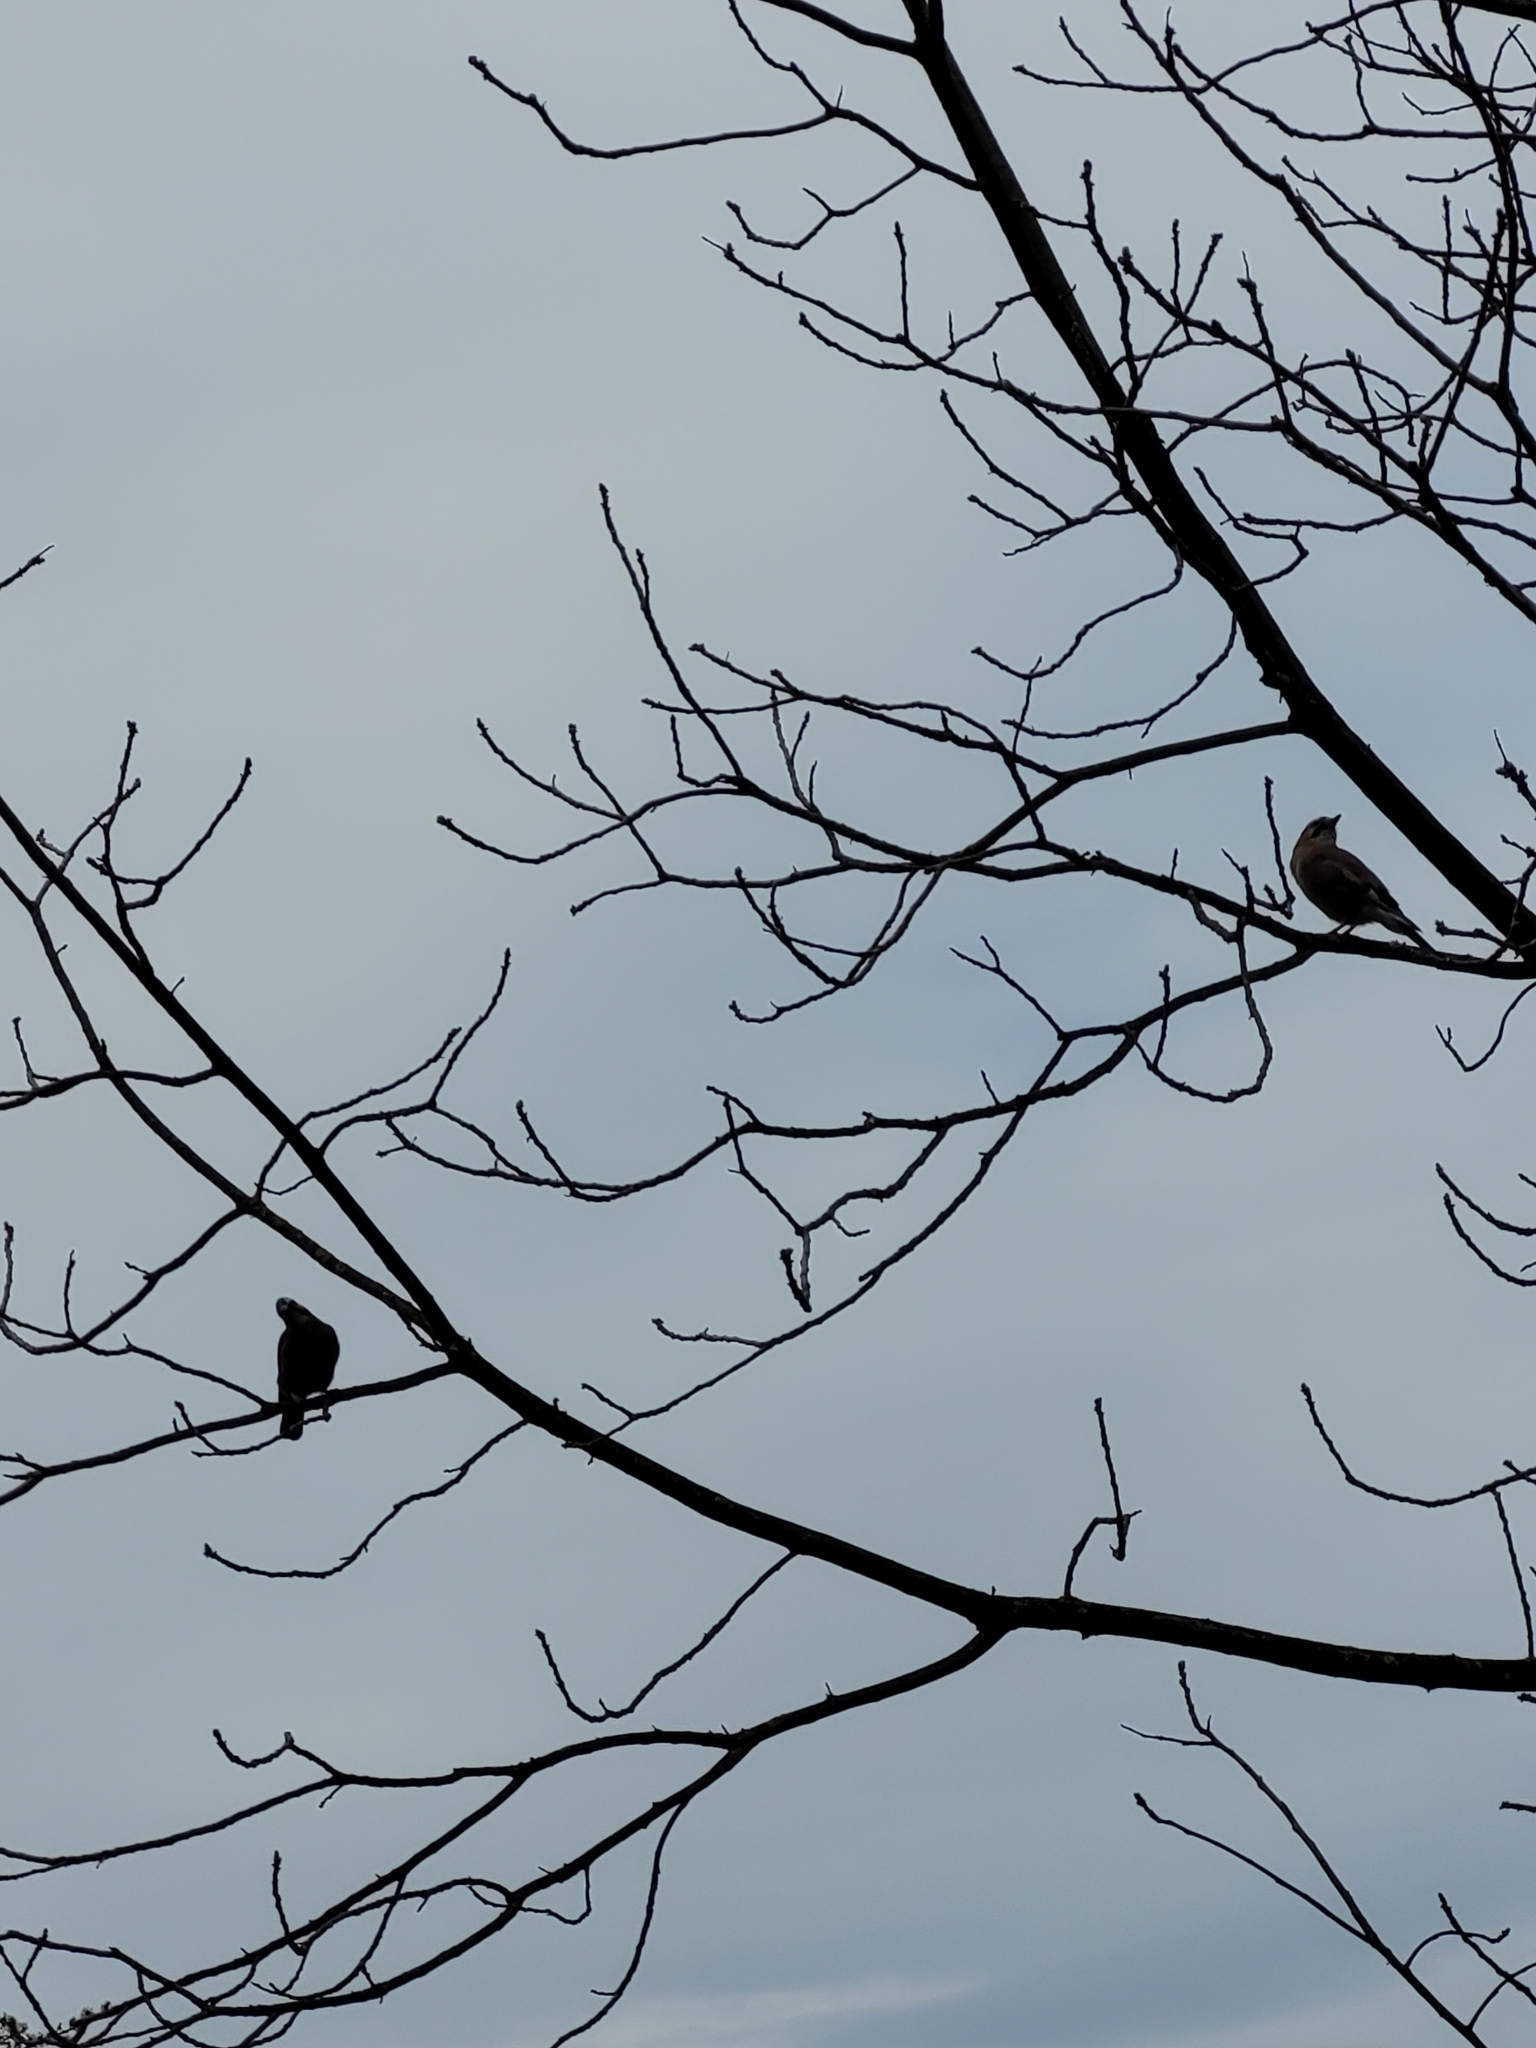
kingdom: Animalia
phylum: Chordata
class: Aves
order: Passeriformes
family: Corvidae
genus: Garrulus
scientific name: Garrulus glandarius
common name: Eurasian jay
